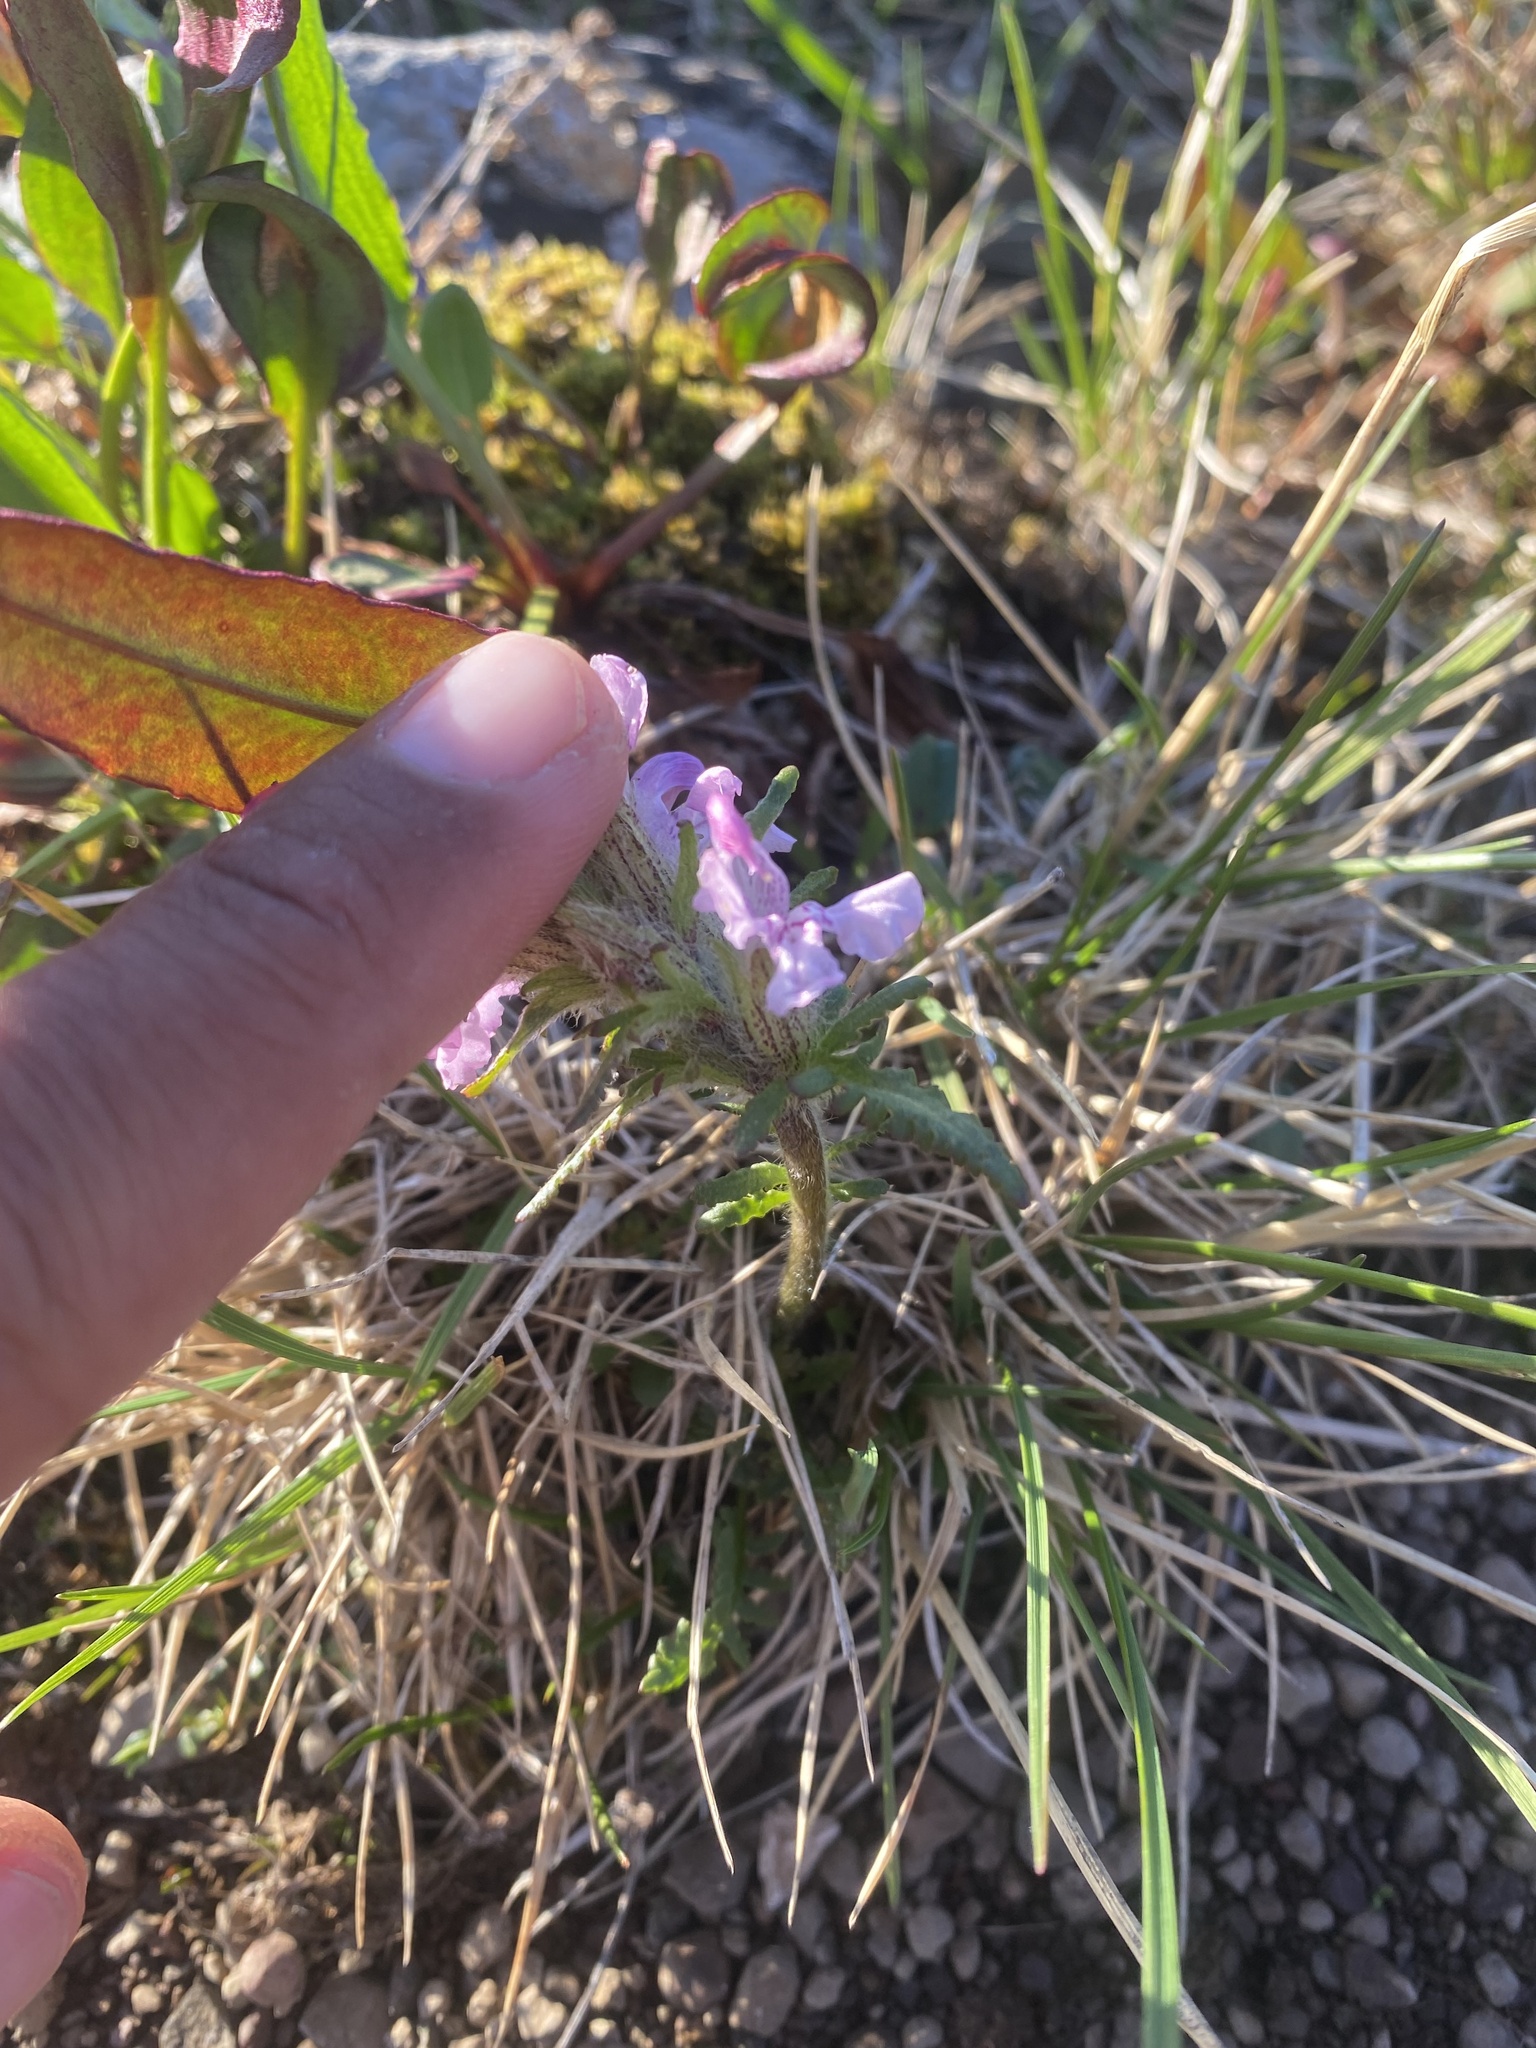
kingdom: Plantae
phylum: Tracheophyta
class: Magnoliopsida
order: Lamiales
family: Orobanchaceae
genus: Pedicularis
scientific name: Pedicularis novaiae-zemliae
